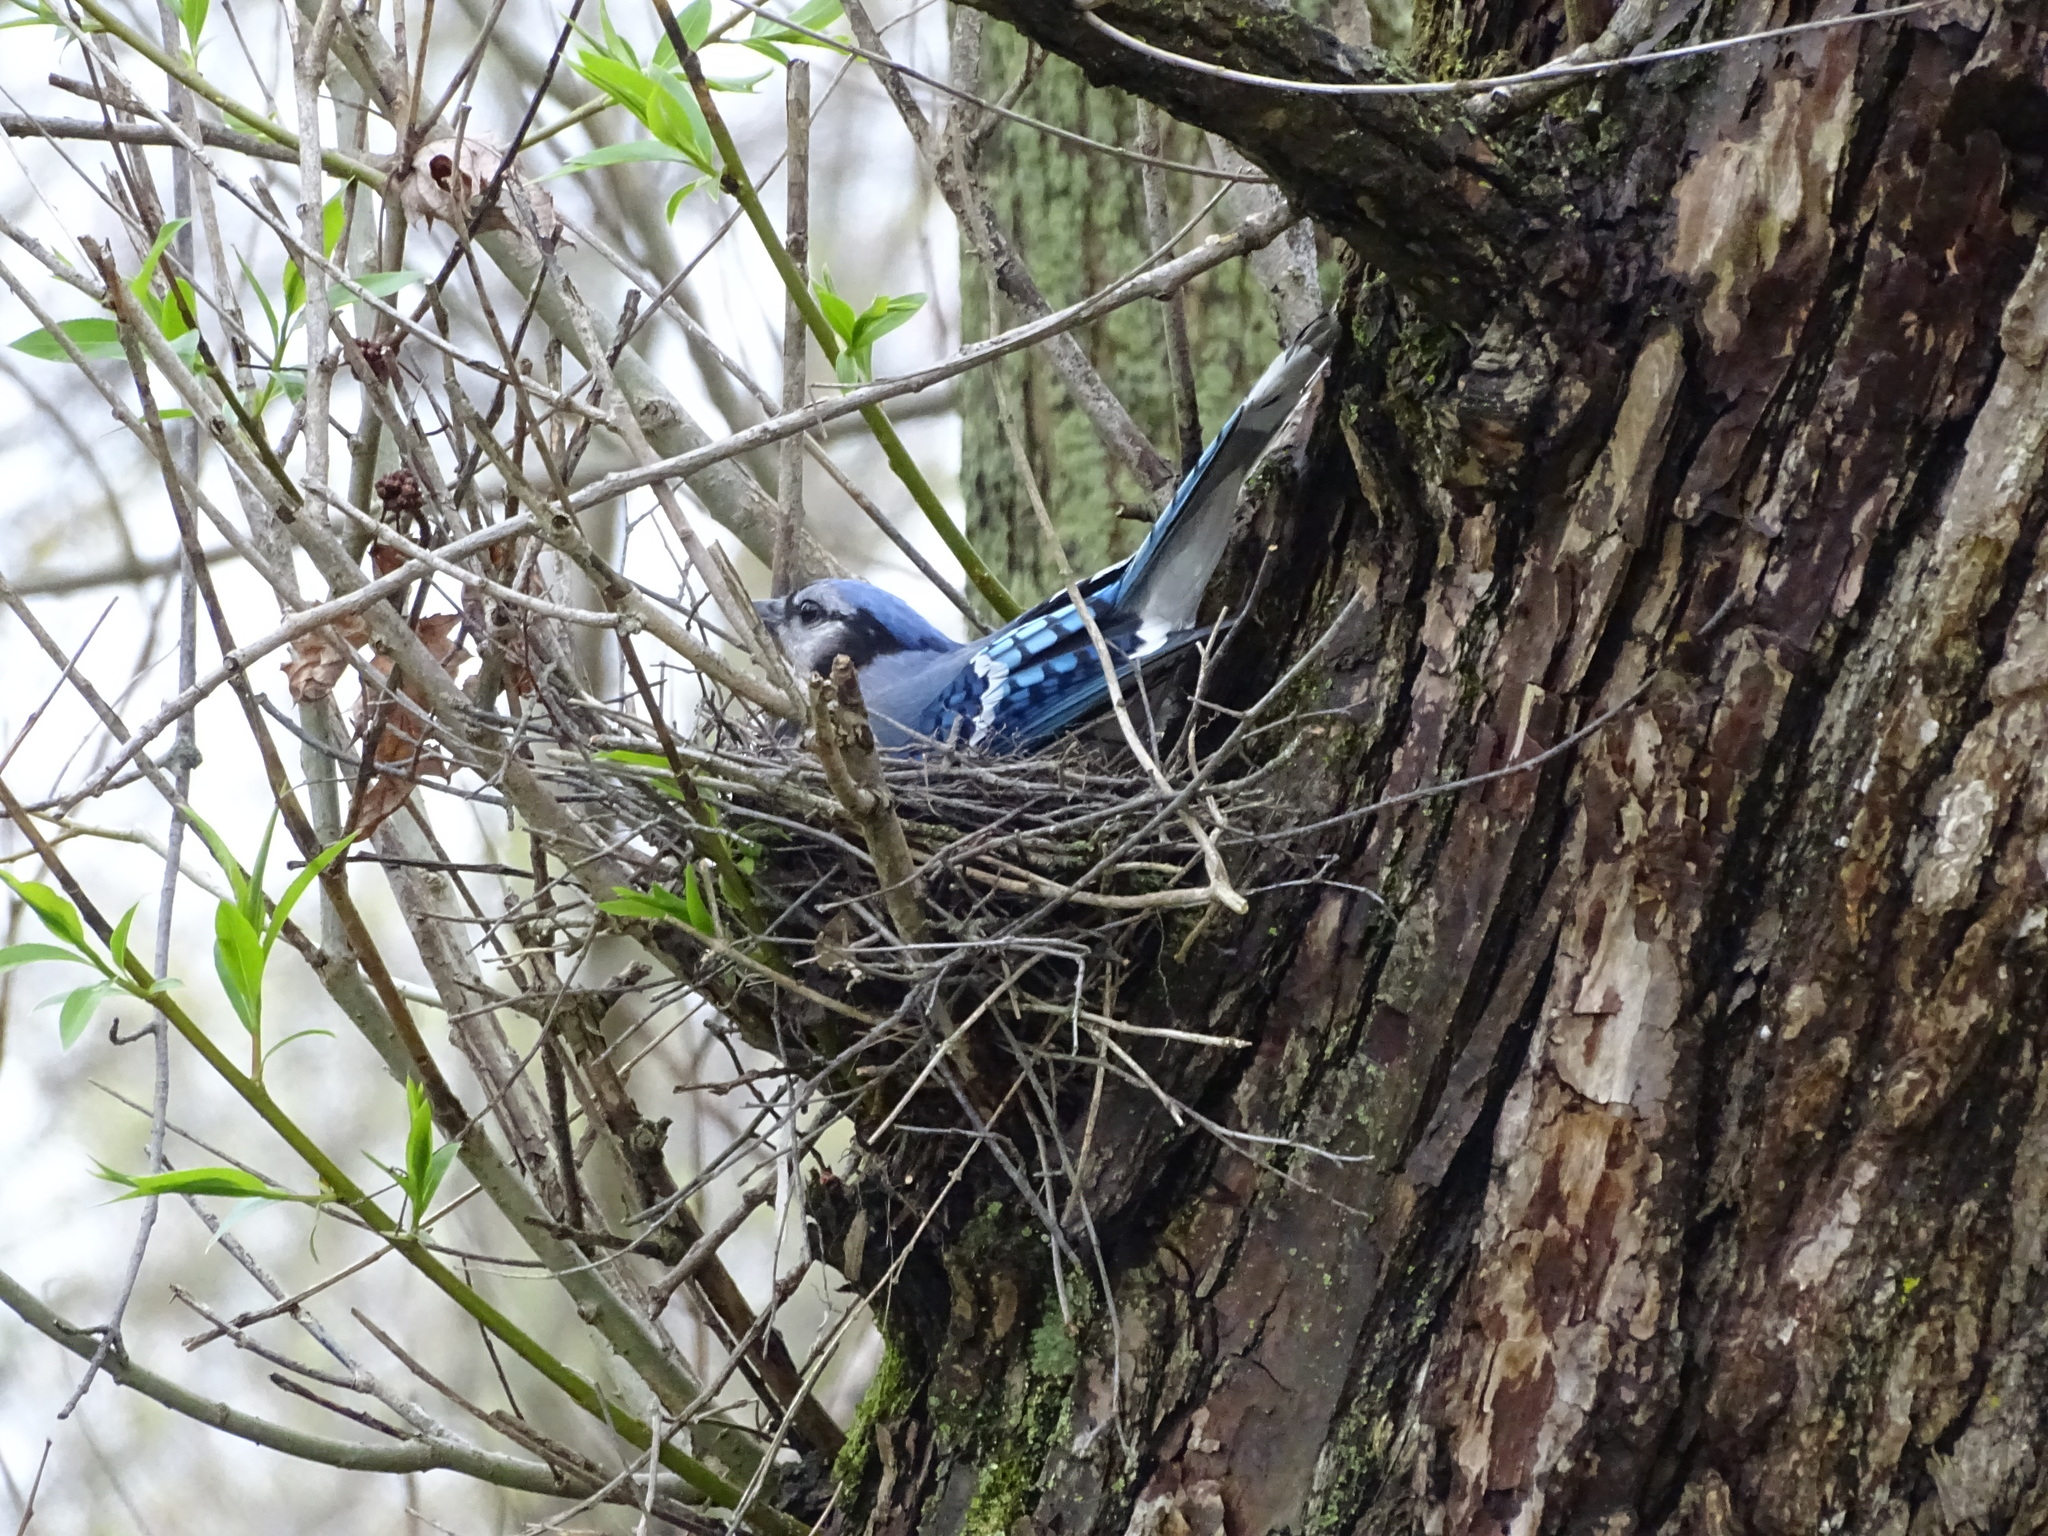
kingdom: Animalia
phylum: Chordata
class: Aves
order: Passeriformes
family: Corvidae
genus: Cyanocitta
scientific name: Cyanocitta cristata
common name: Blue jay
